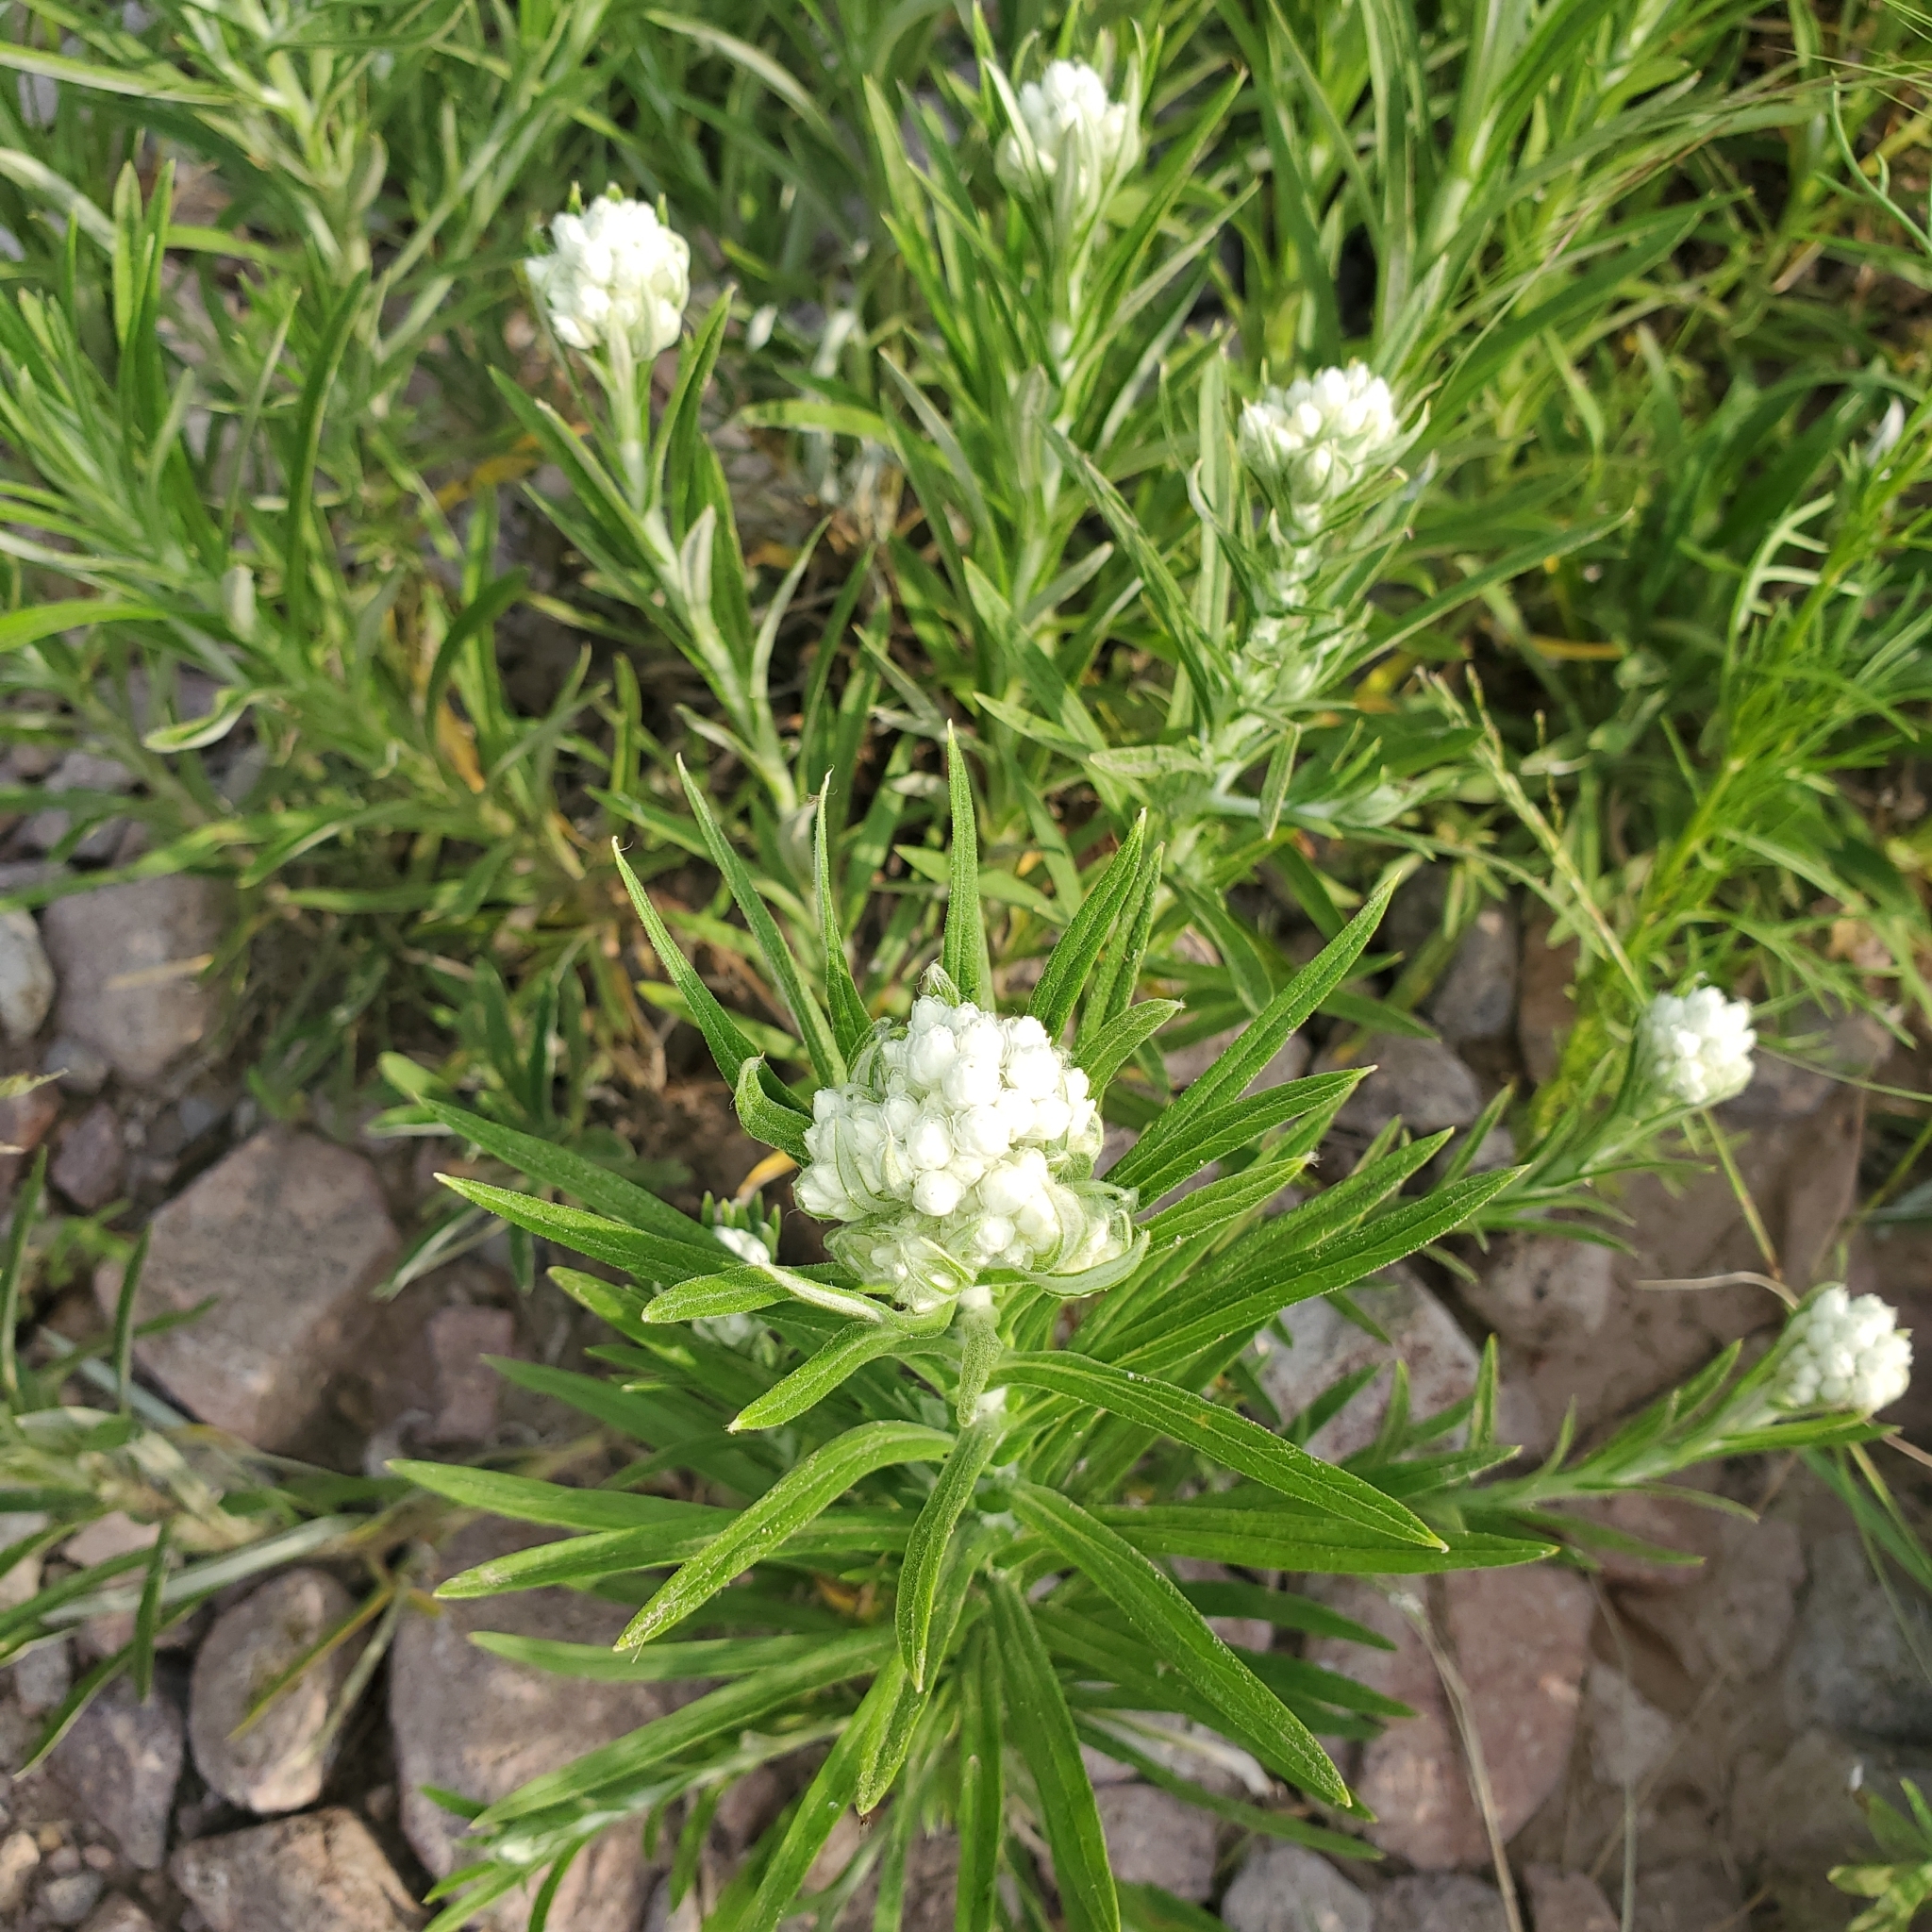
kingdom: Plantae
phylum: Tracheophyta
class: Magnoliopsida
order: Asterales
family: Asteraceae
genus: Pseudognaphalium
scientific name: Pseudognaphalium leucocephalum
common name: White cudweed
